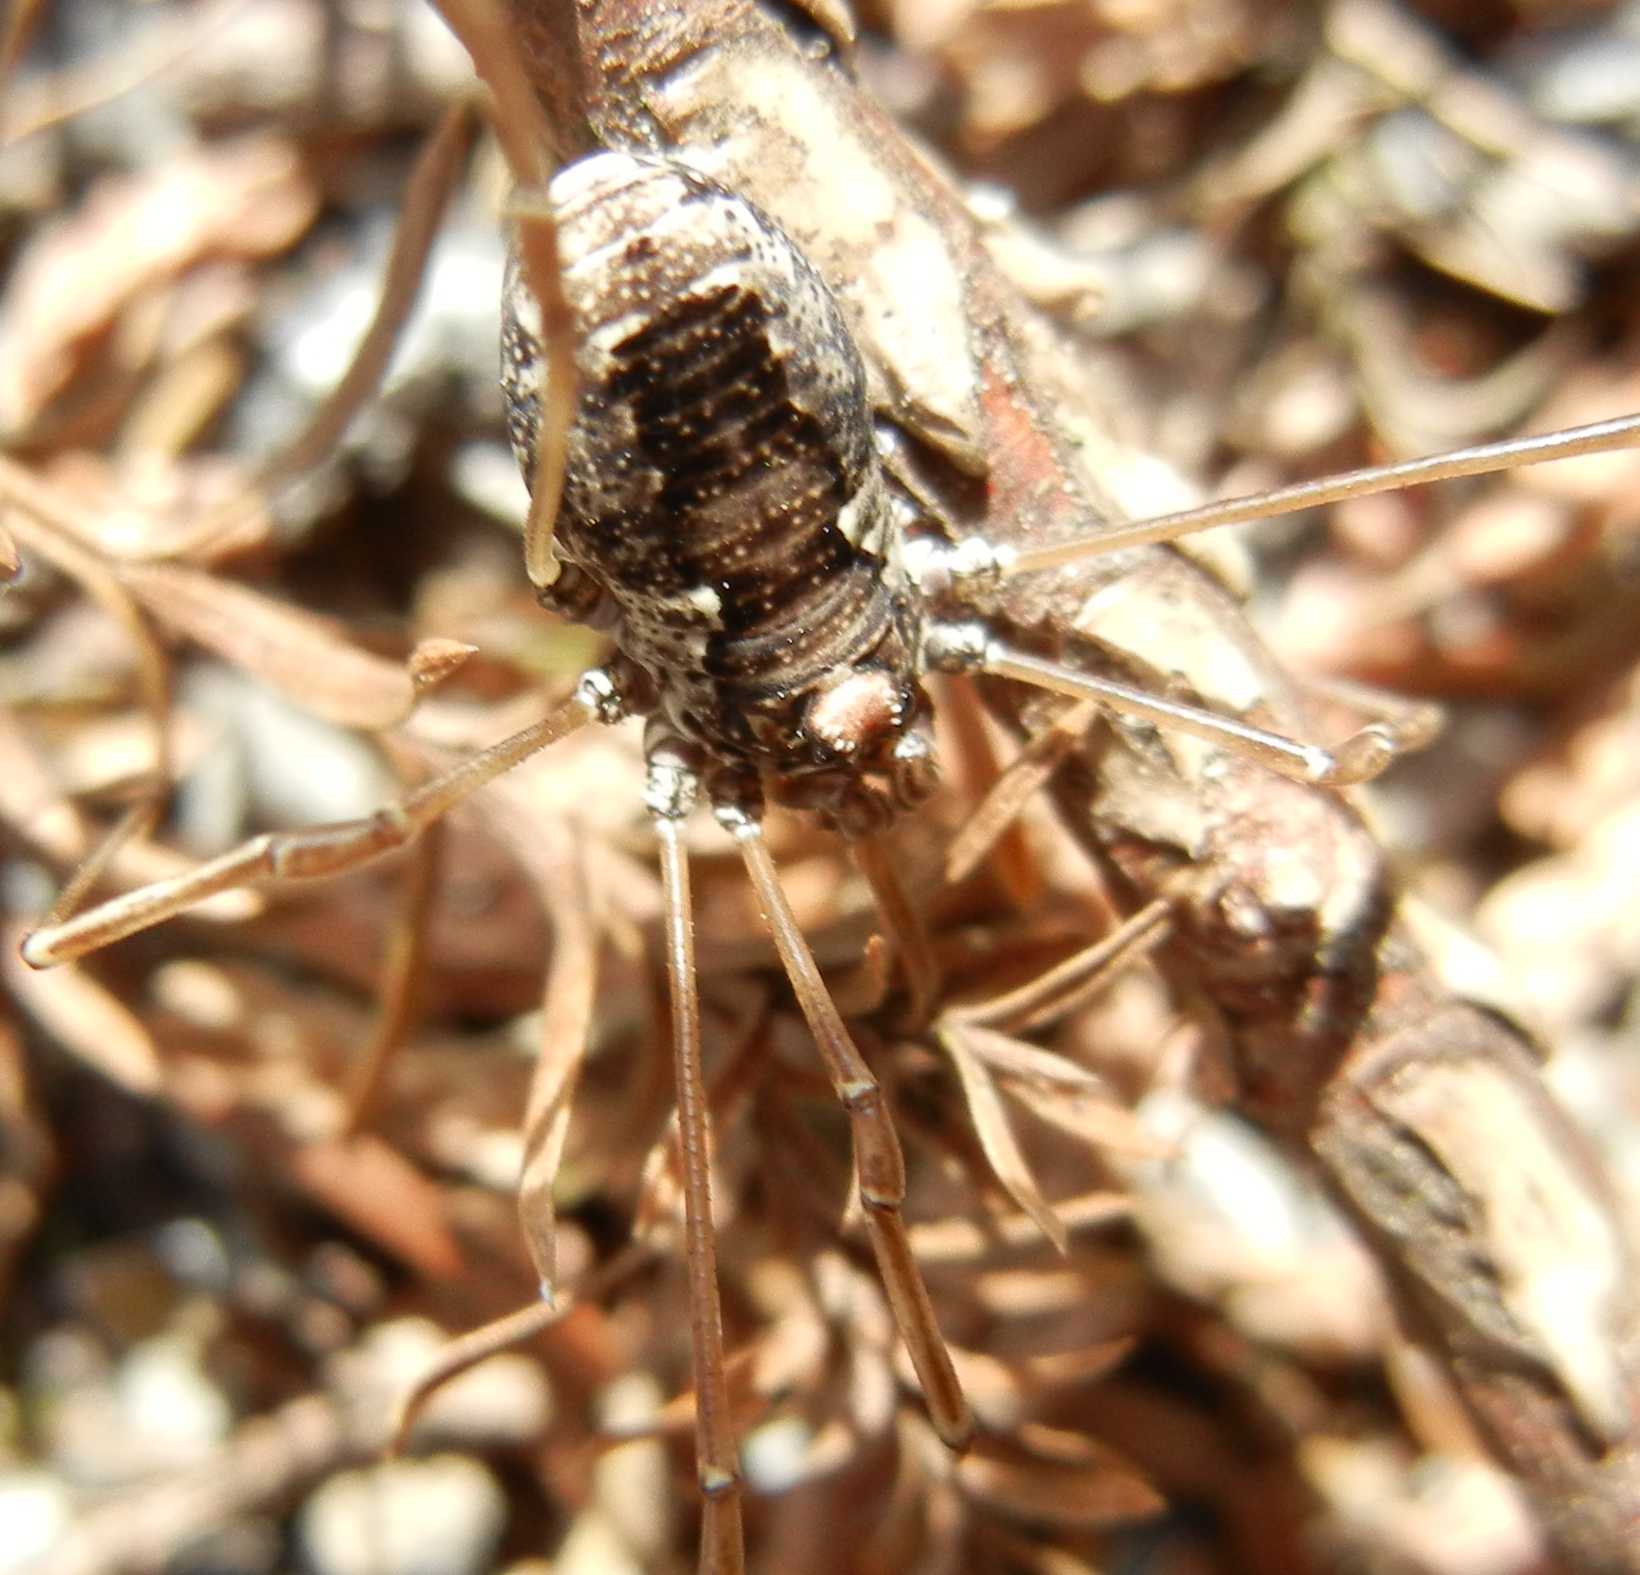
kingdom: Animalia
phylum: Arthropoda
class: Arachnida
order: Opiliones
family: Phalangiidae
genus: Platybunus
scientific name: Platybunus pinetorum
